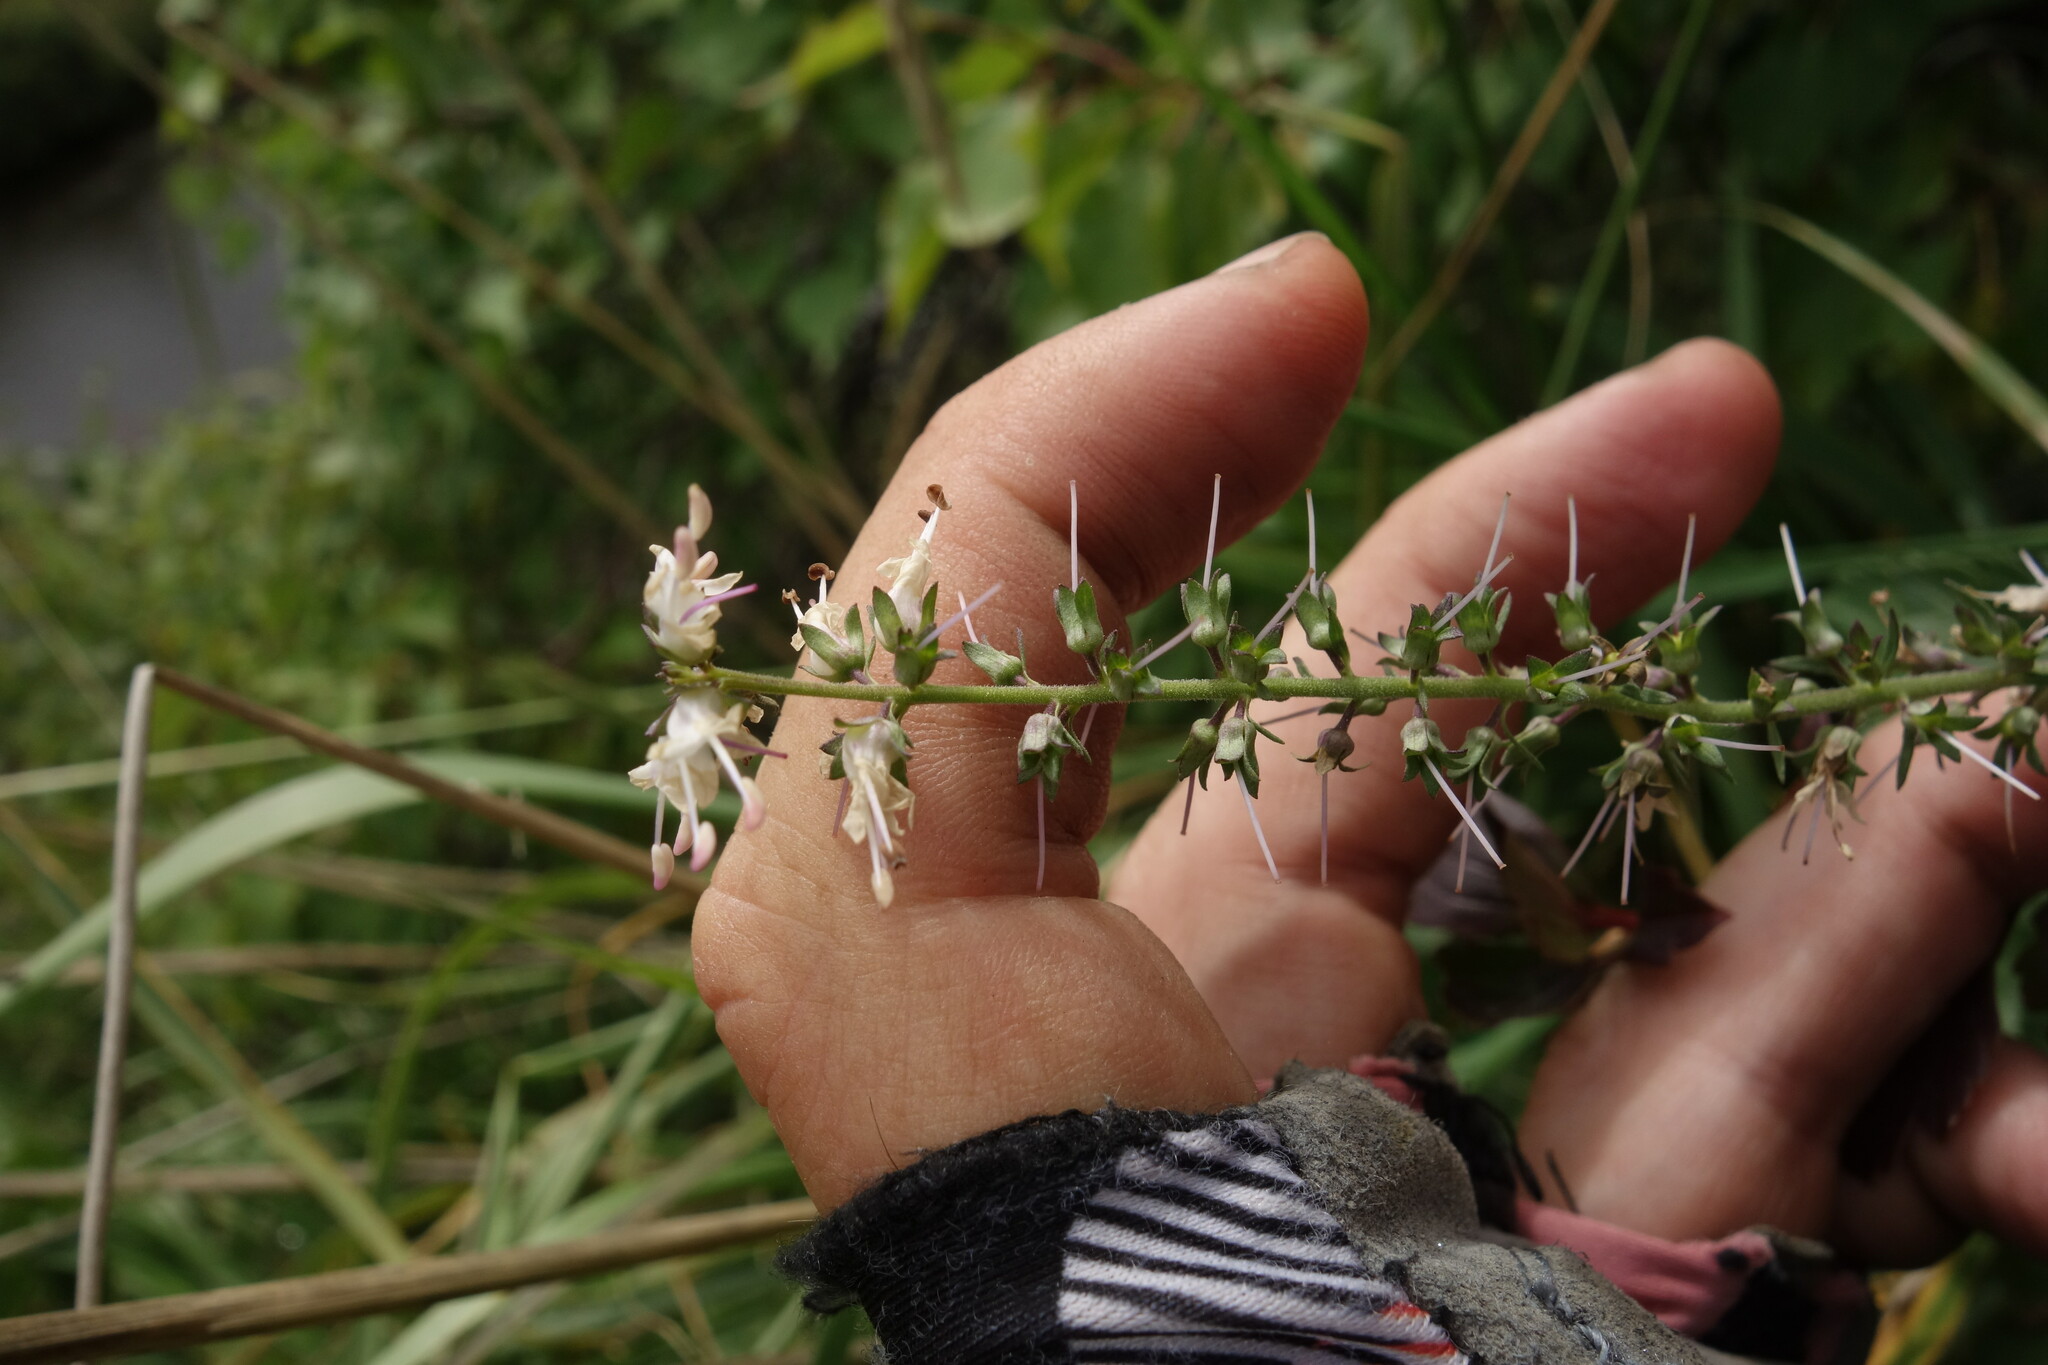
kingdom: Plantae
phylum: Tracheophyta
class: Magnoliopsida
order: Lamiales
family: Plantaginaceae
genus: Veronica
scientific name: Veronica daurica
